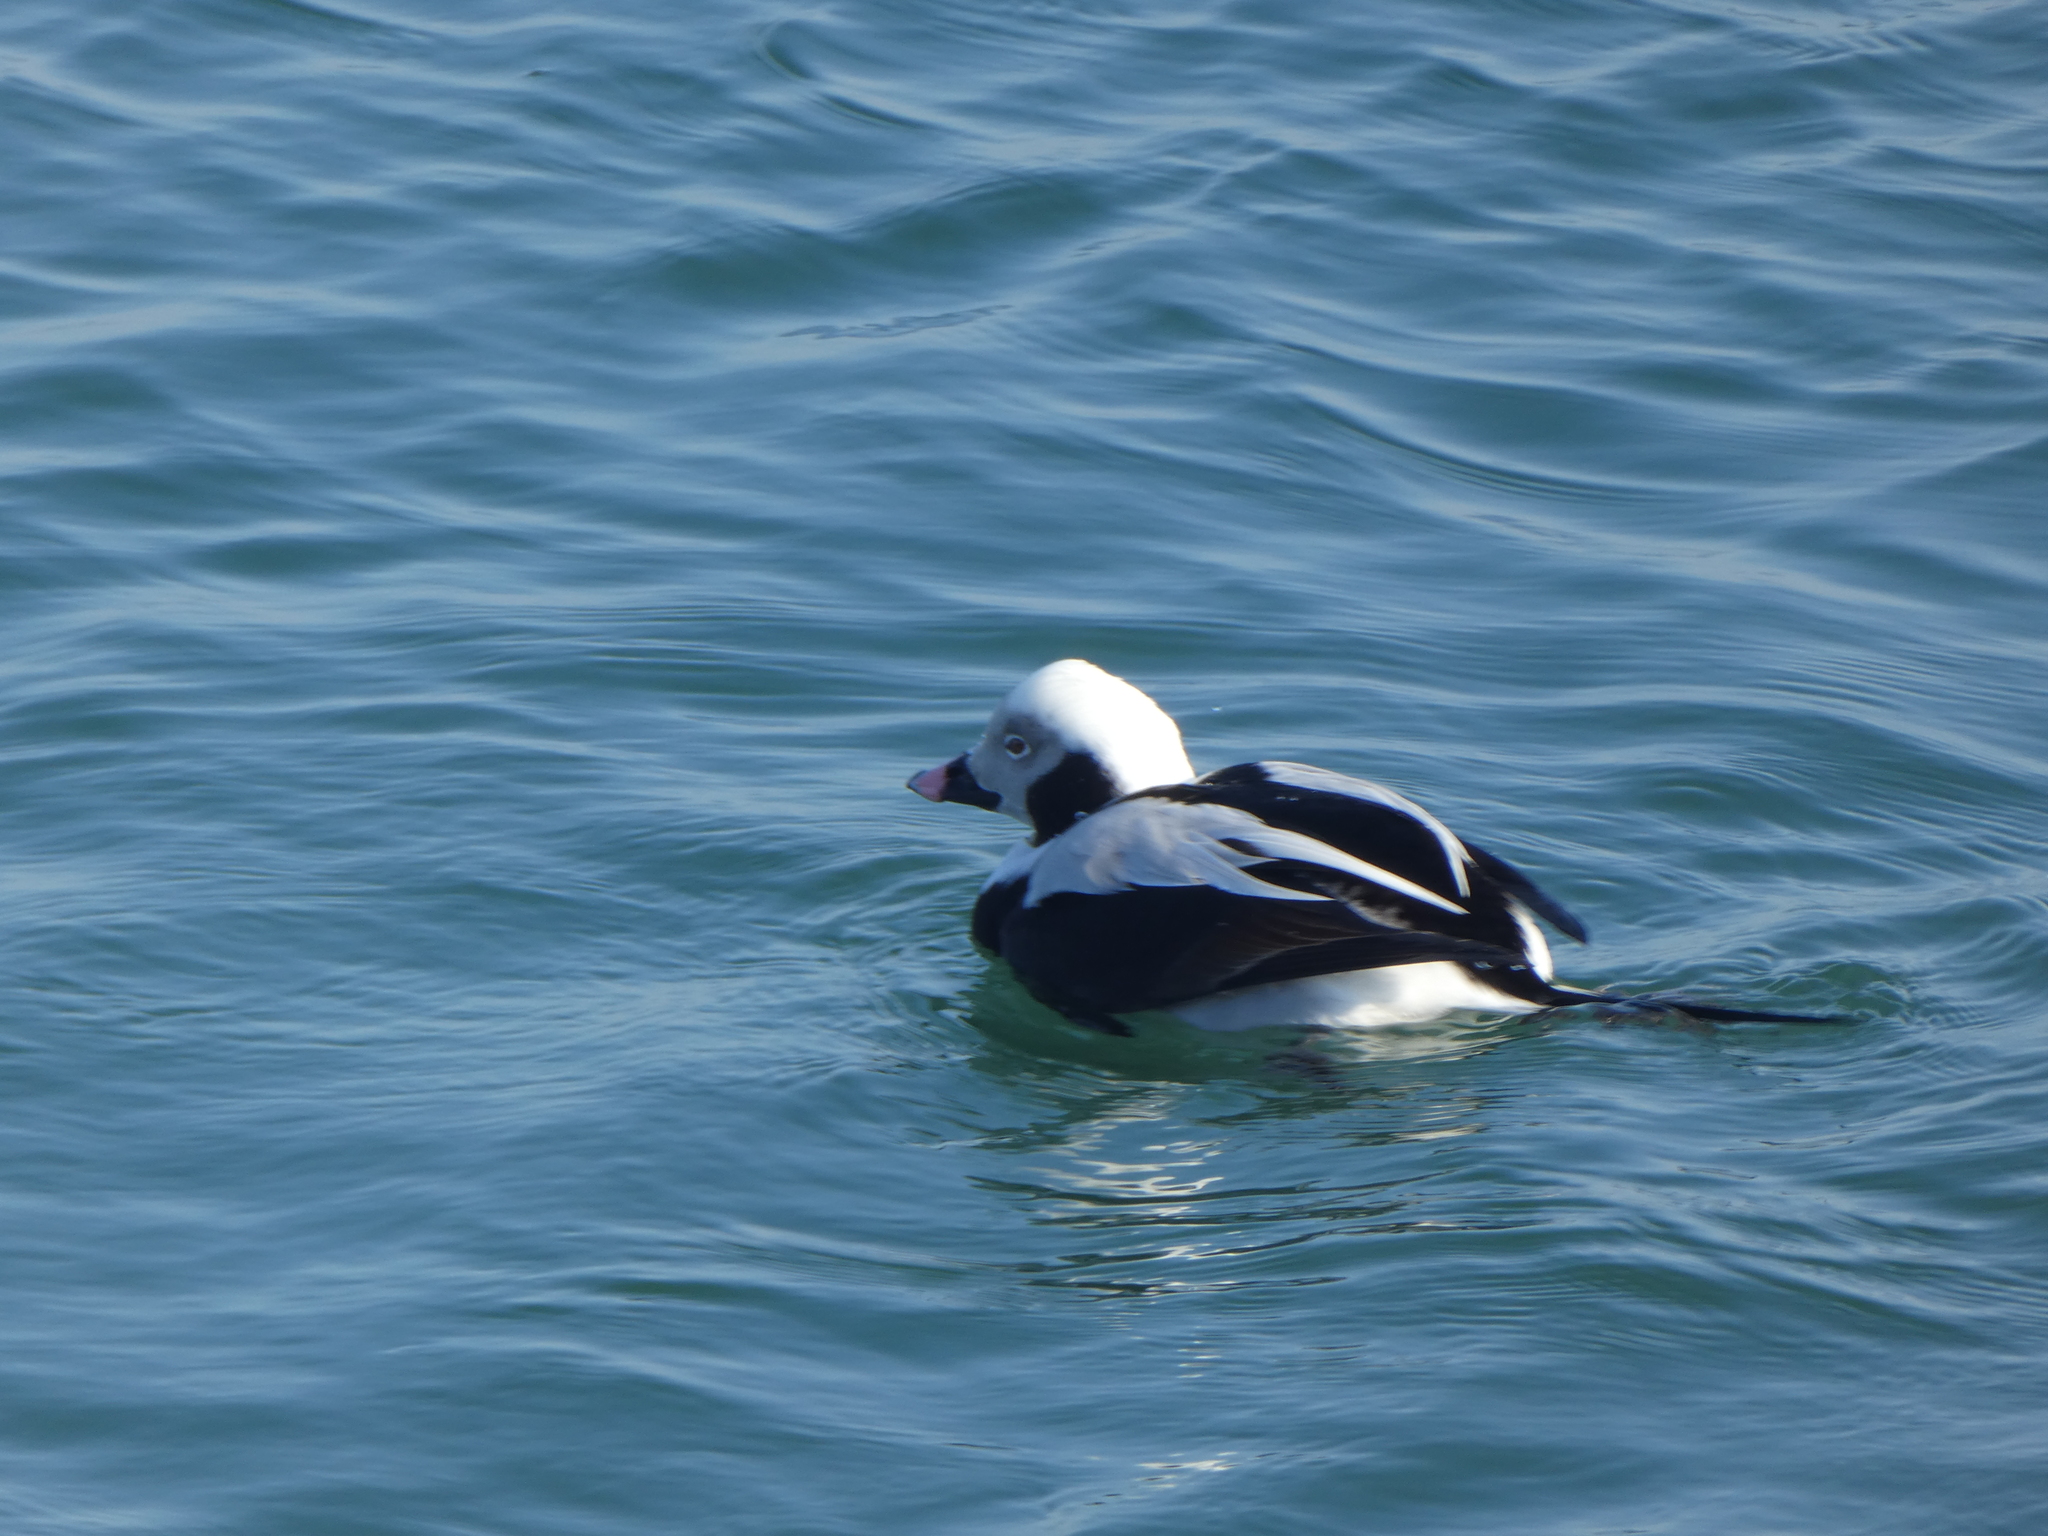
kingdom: Animalia
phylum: Chordata
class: Aves
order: Anseriformes
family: Anatidae
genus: Clangula
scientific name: Clangula hyemalis
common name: Long-tailed duck
